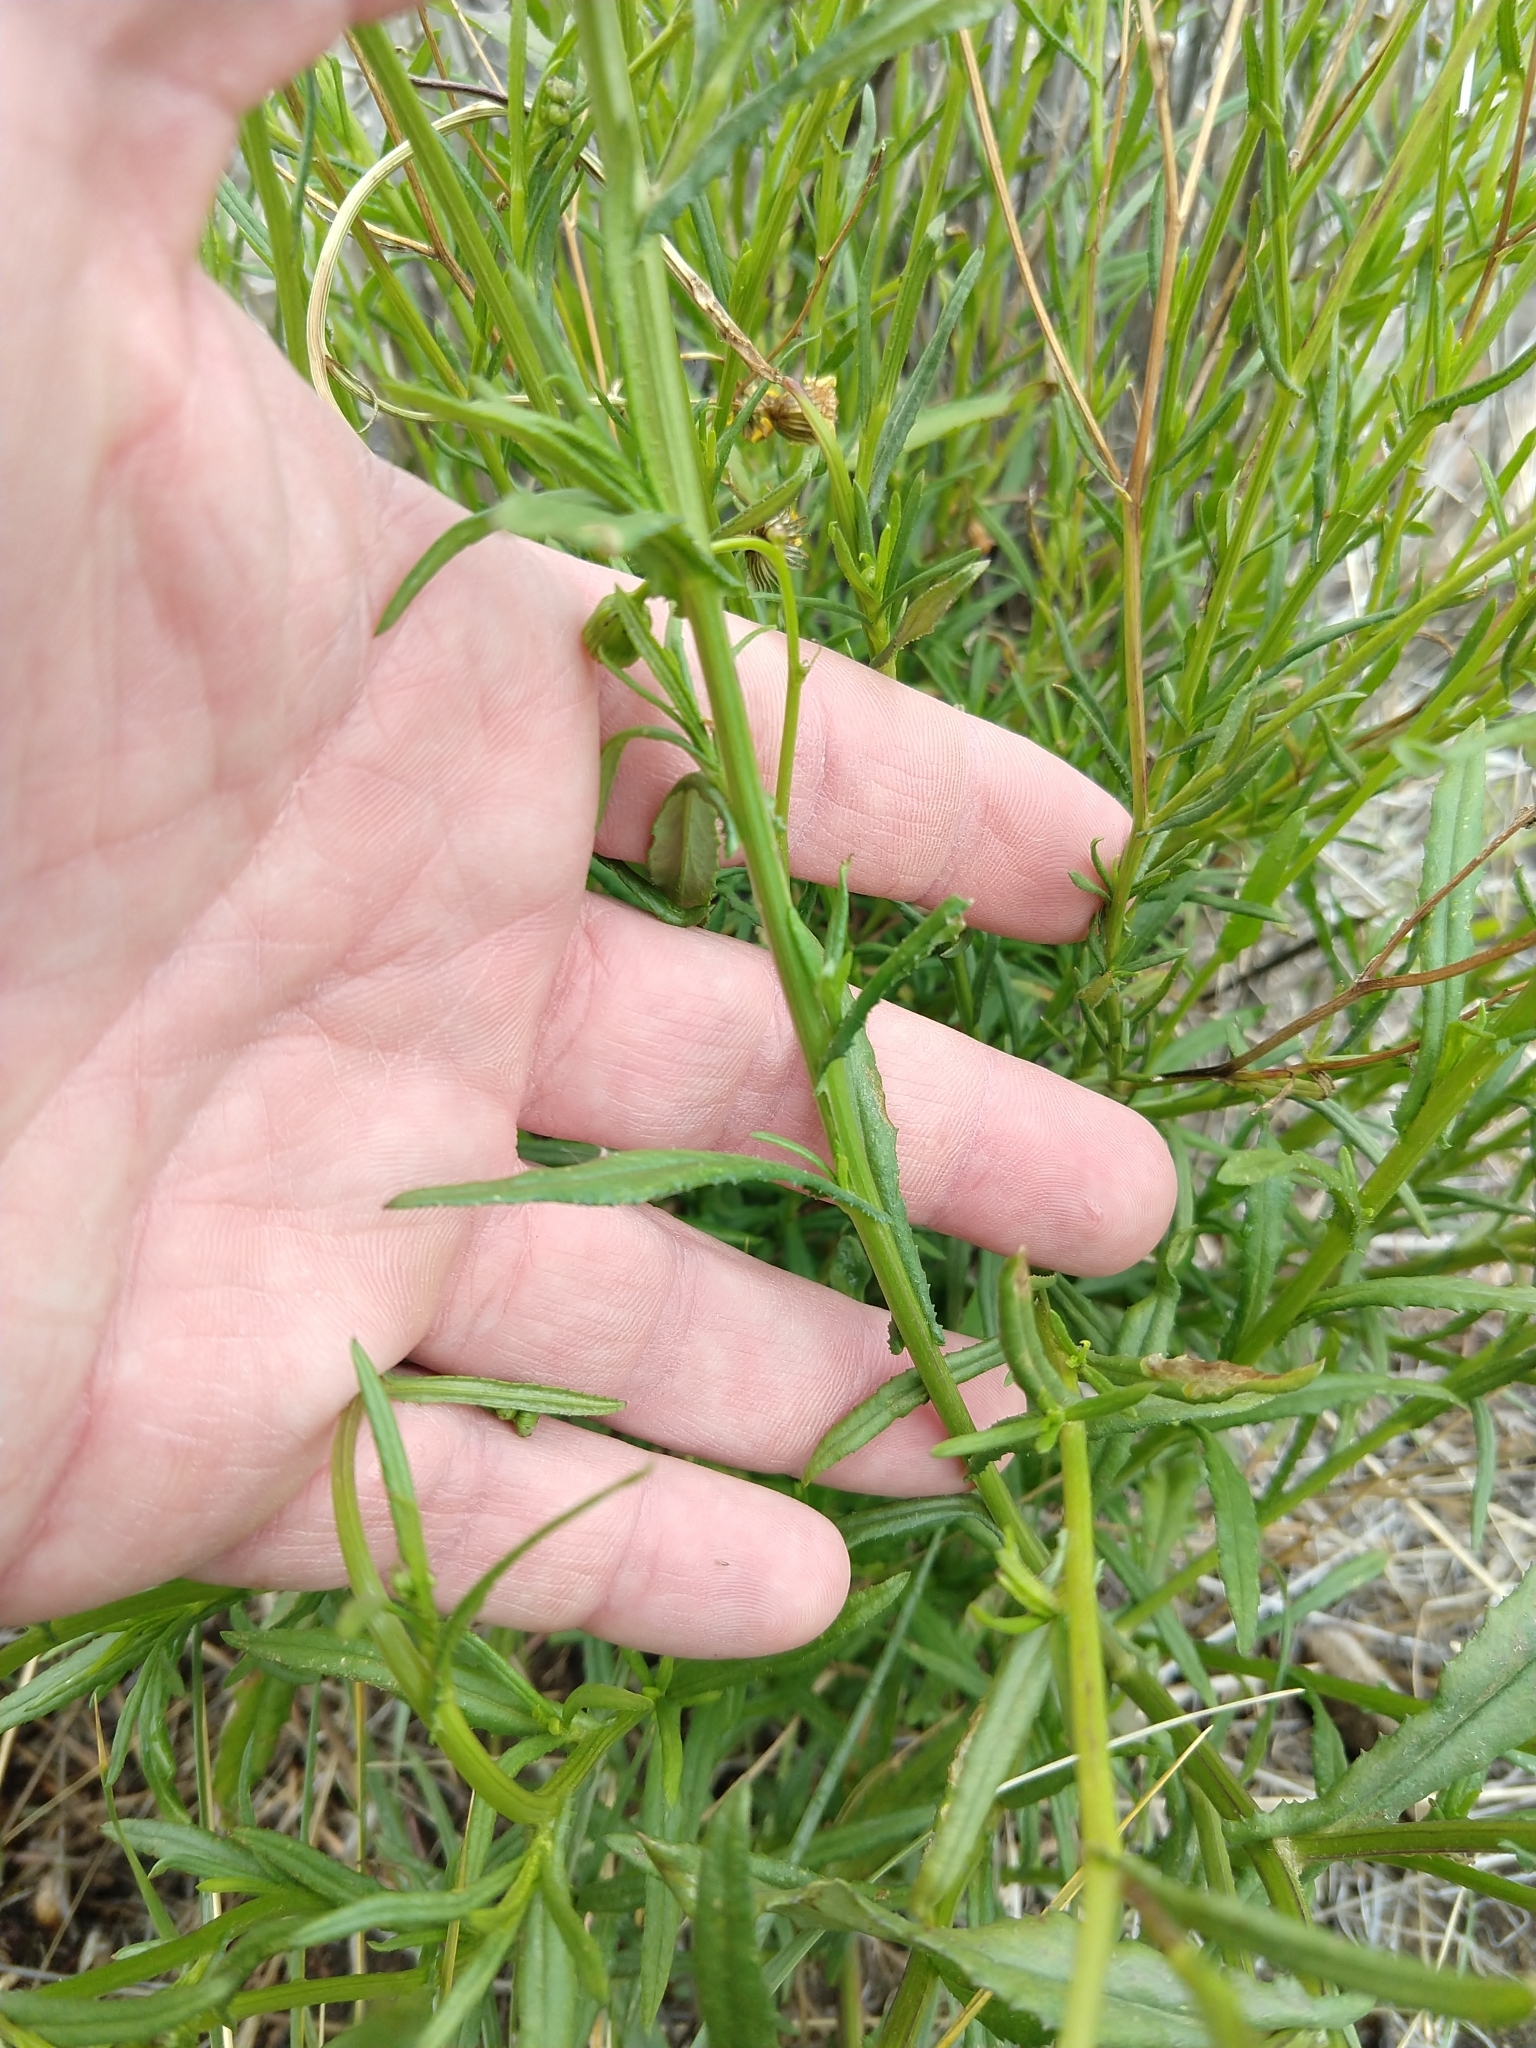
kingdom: Plantae
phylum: Tracheophyta
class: Magnoliopsida
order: Asterales
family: Asteraceae
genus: Senecio
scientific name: Senecio madagascariensis
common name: Madagascar ragwort
